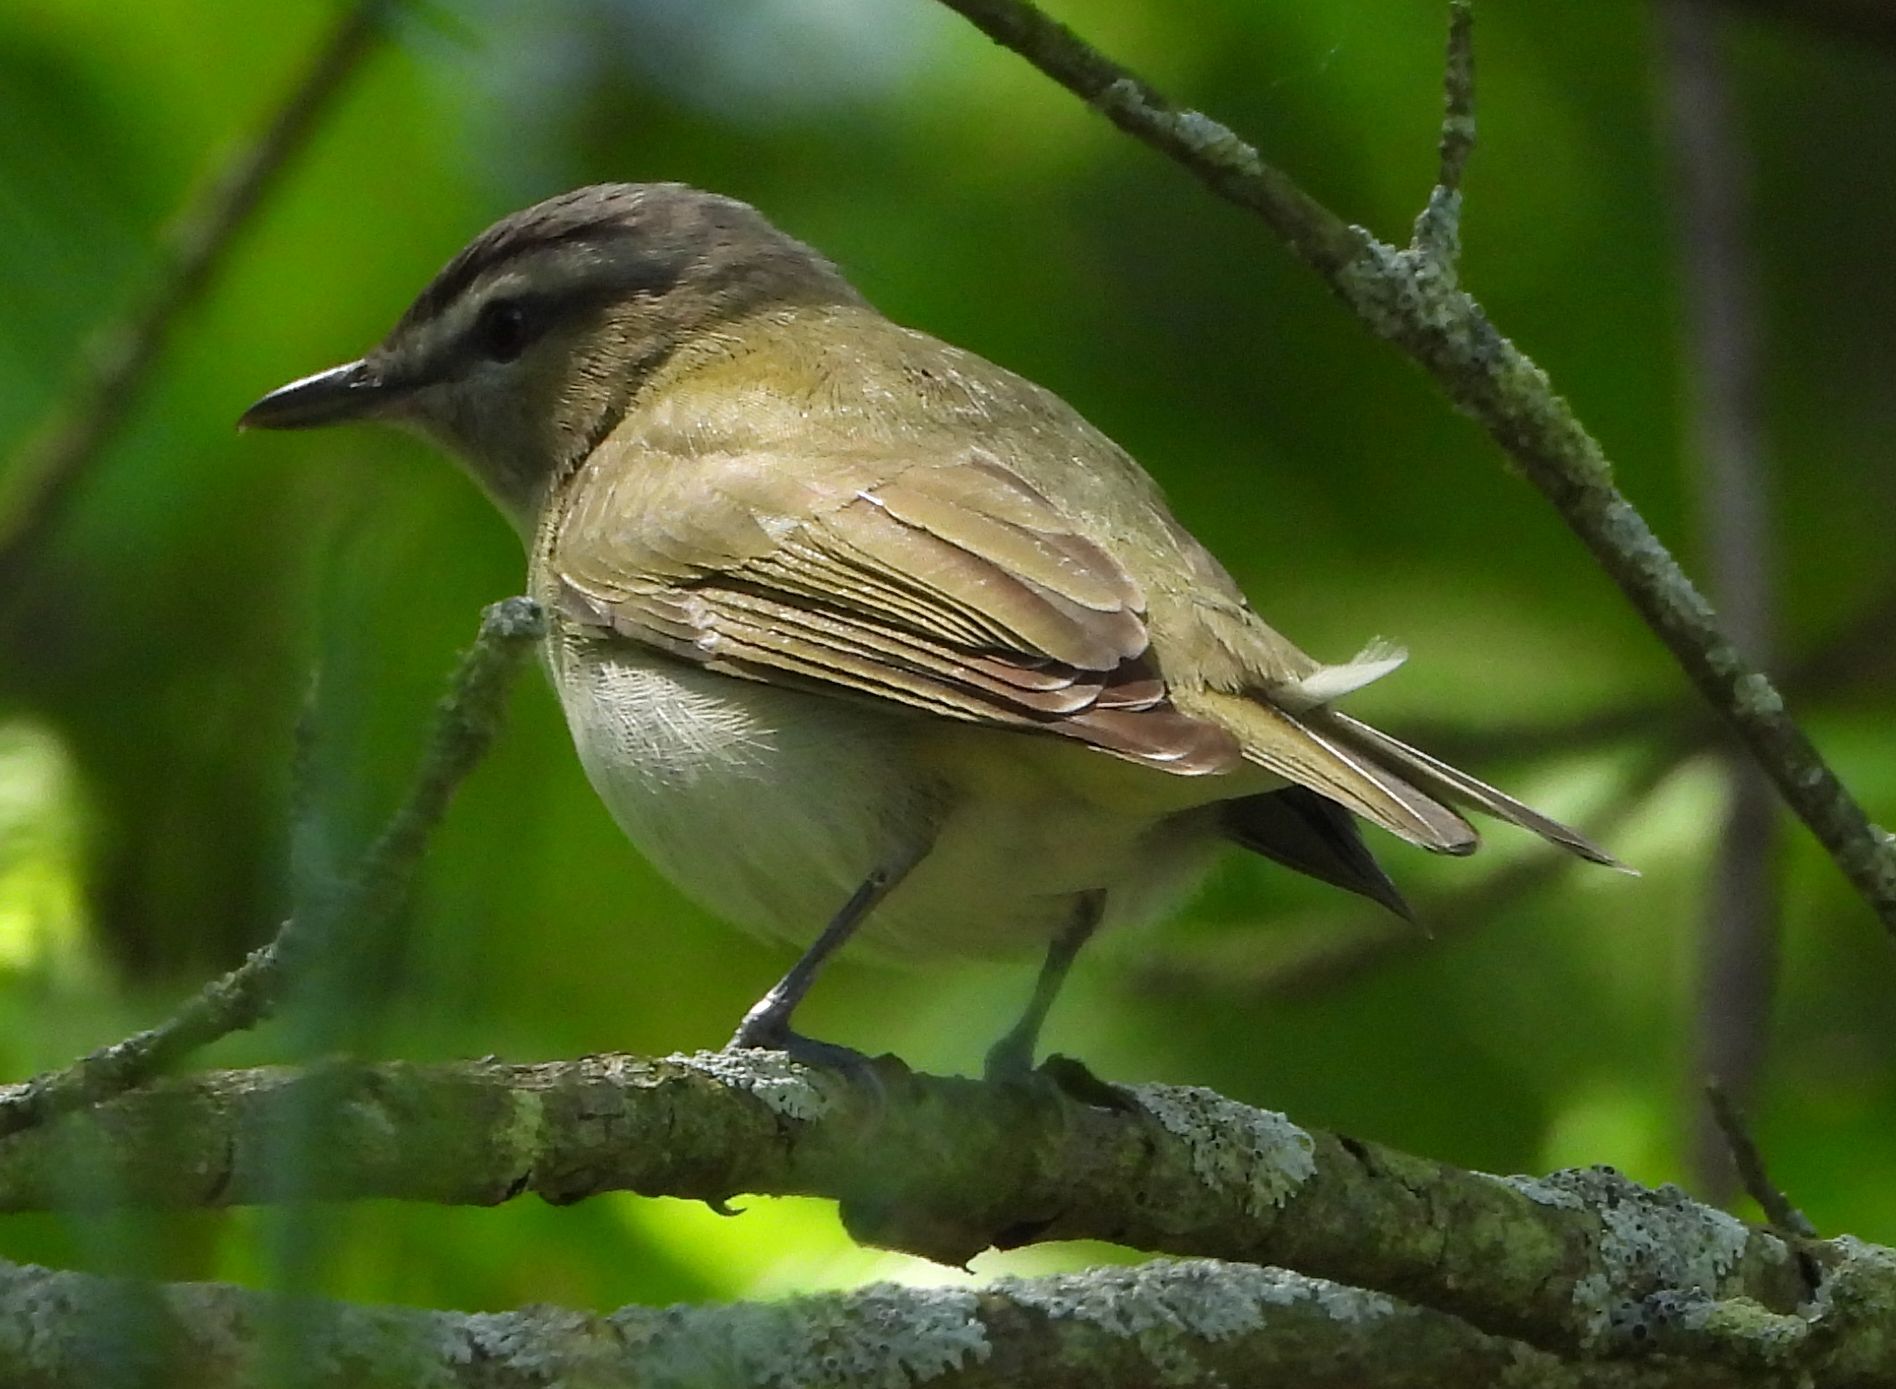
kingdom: Animalia
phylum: Chordata
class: Aves
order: Passeriformes
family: Vireonidae
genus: Vireo
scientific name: Vireo olivaceus
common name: Red-eyed vireo
